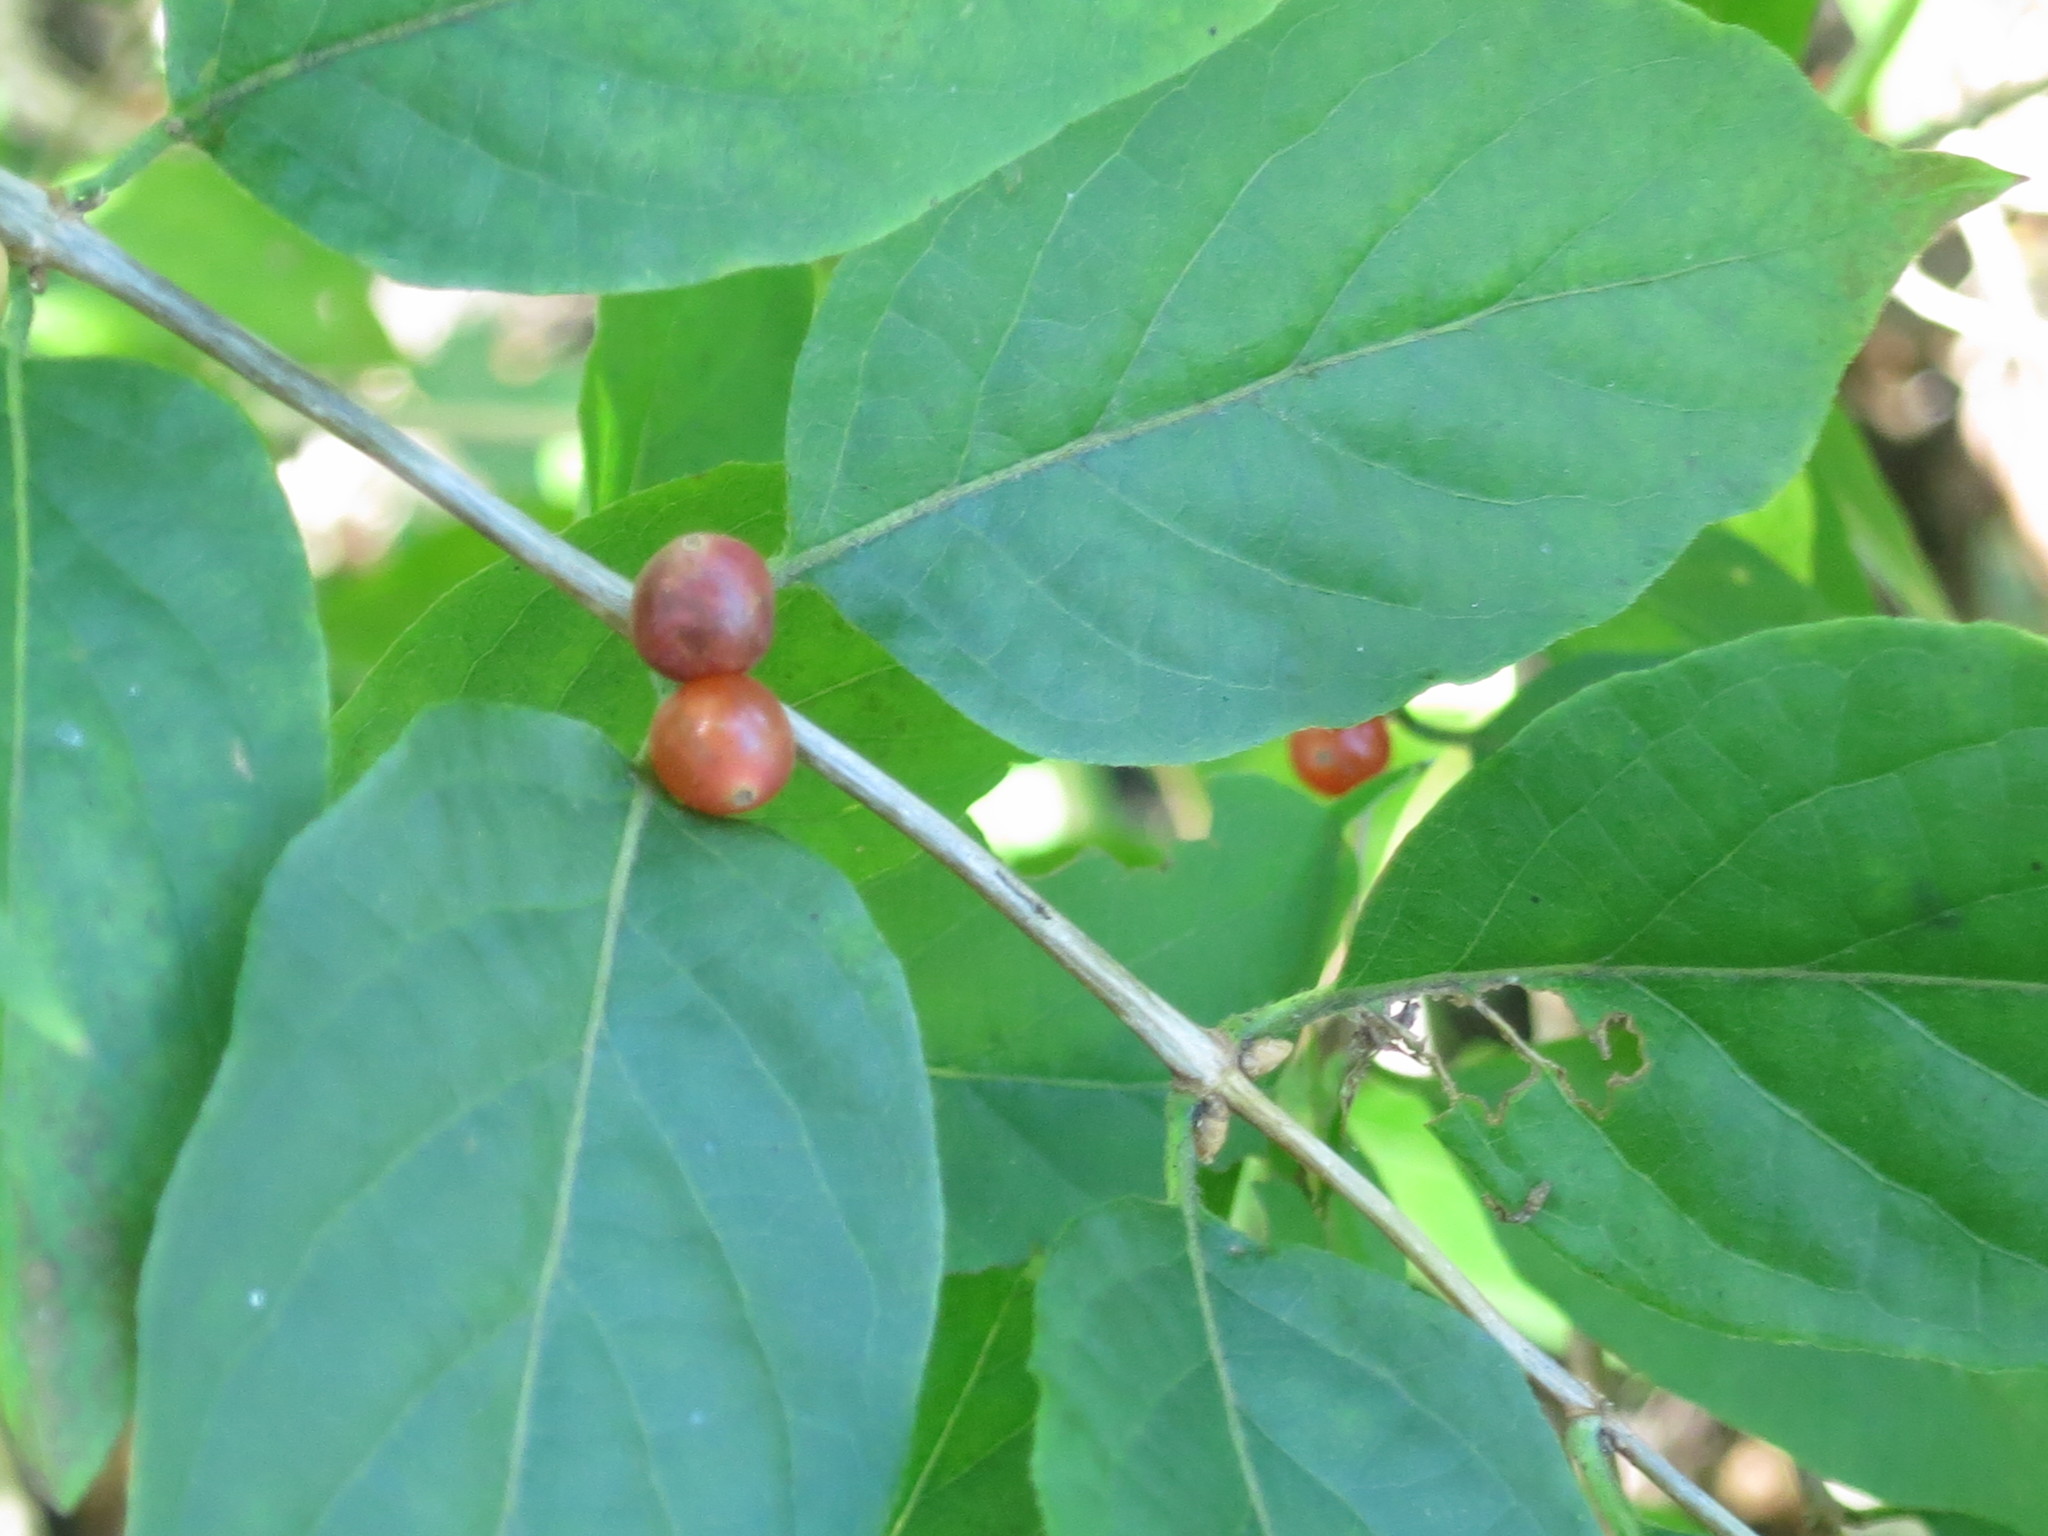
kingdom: Plantae
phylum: Tracheophyta
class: Magnoliopsida
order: Dipsacales
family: Caprifoliaceae
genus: Lonicera
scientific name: Lonicera maackii
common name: Amur honeysuckle
